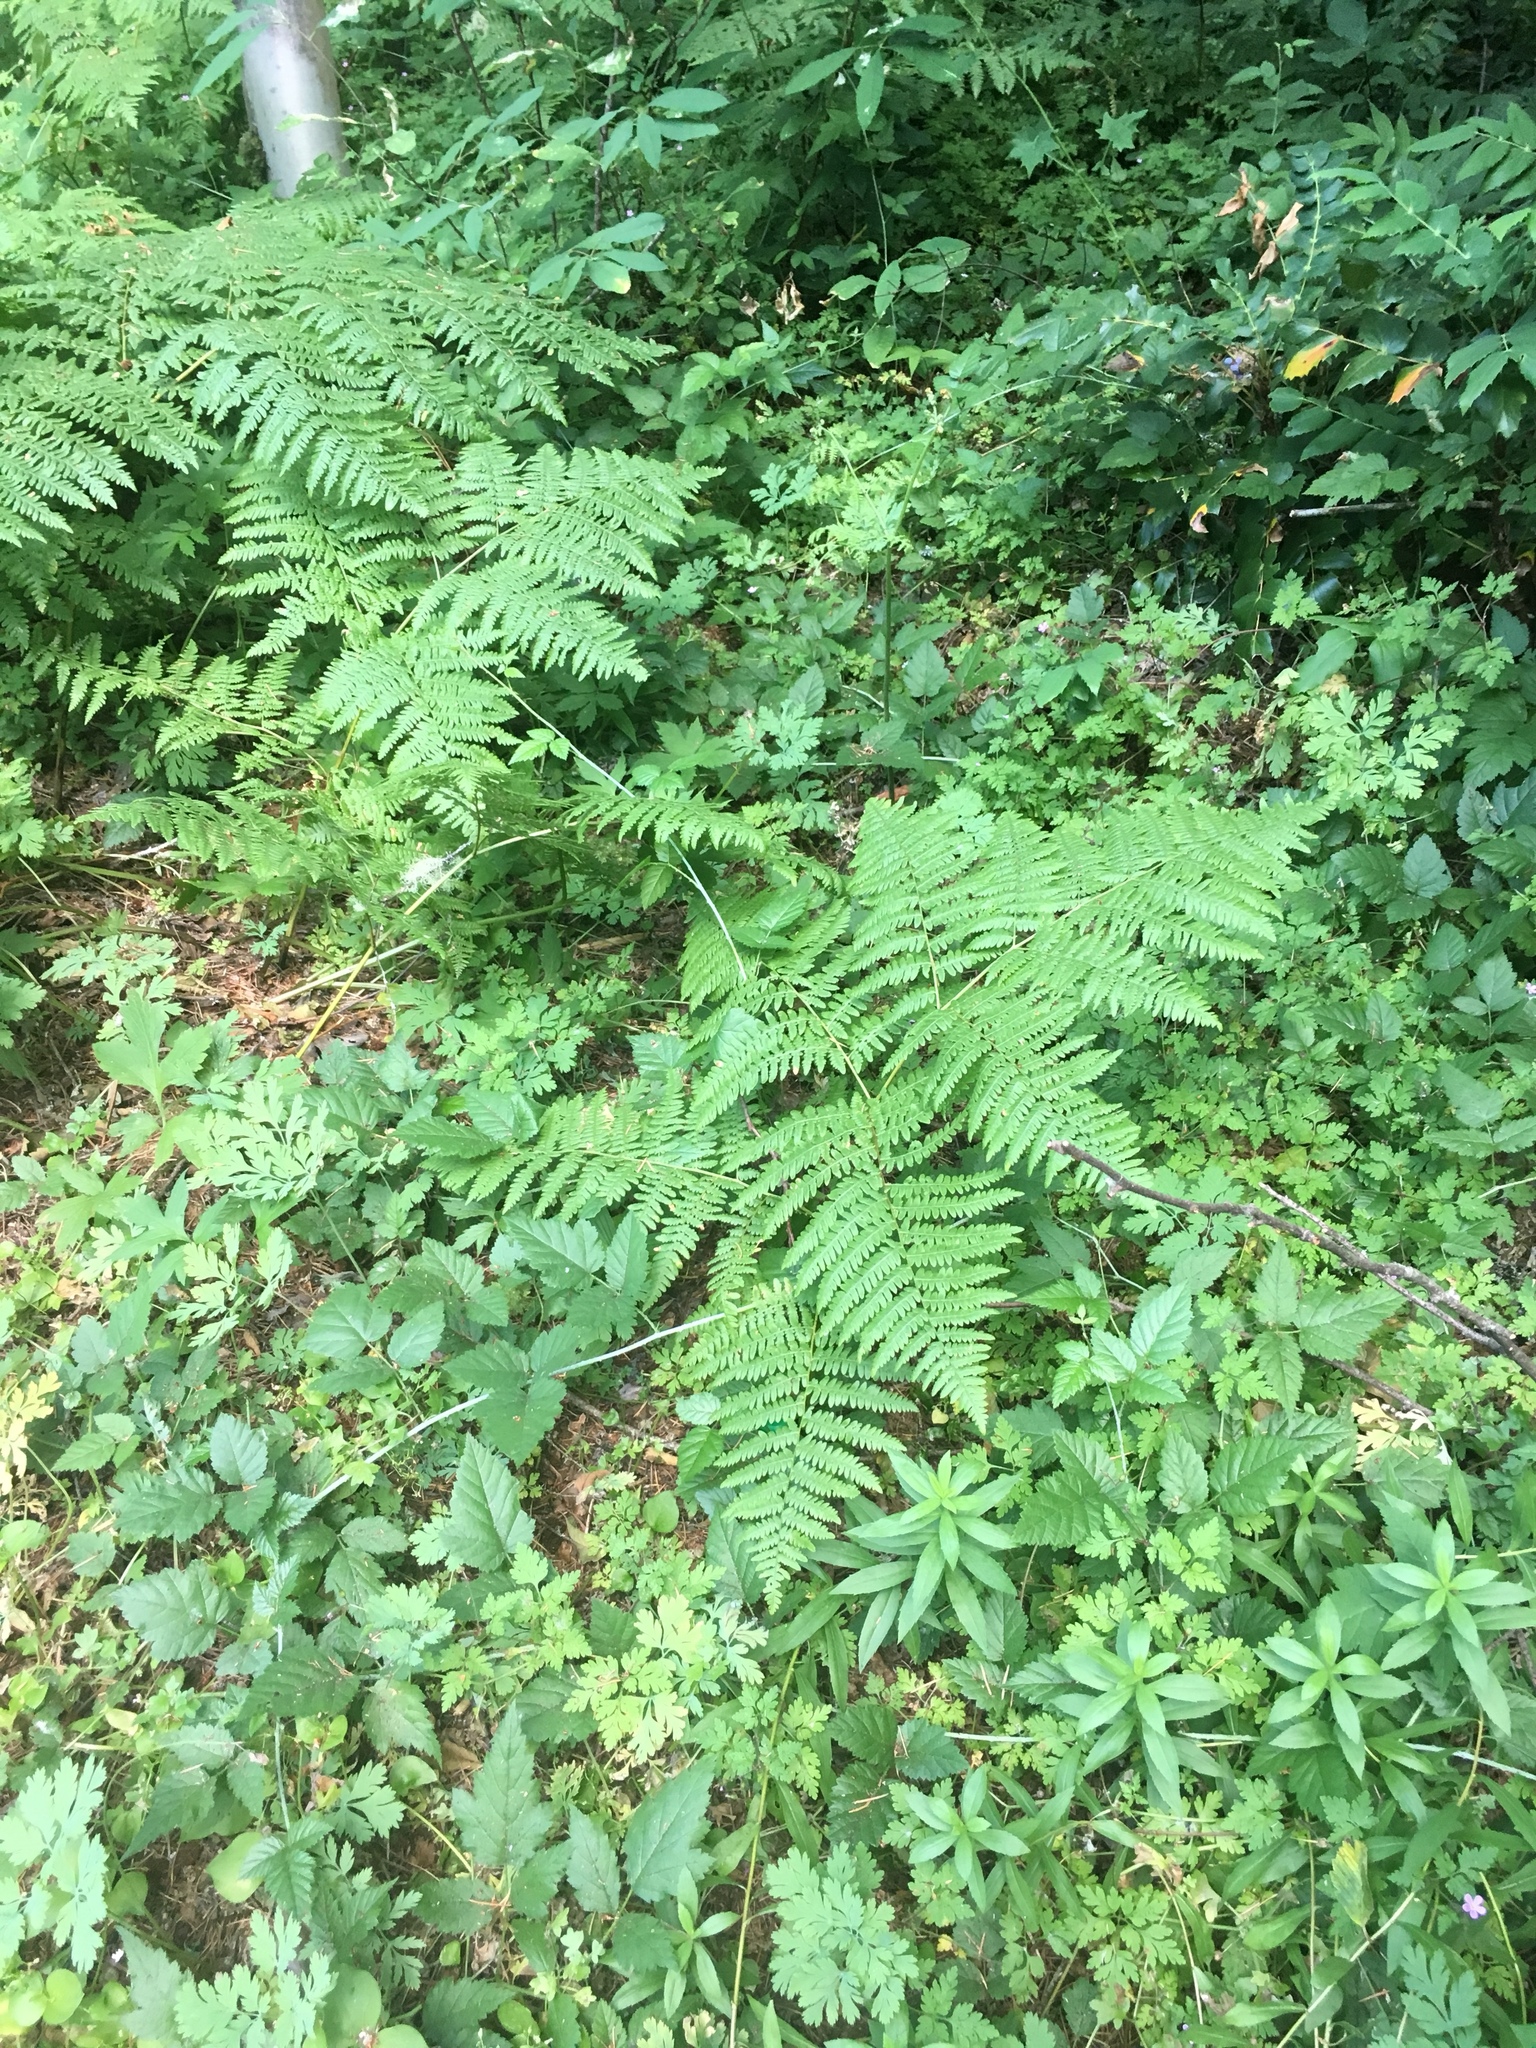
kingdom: Plantae
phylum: Tracheophyta
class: Polypodiopsida
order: Polypodiales
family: Dennstaedtiaceae
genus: Pteridium
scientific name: Pteridium aquilinum
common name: Bracken
